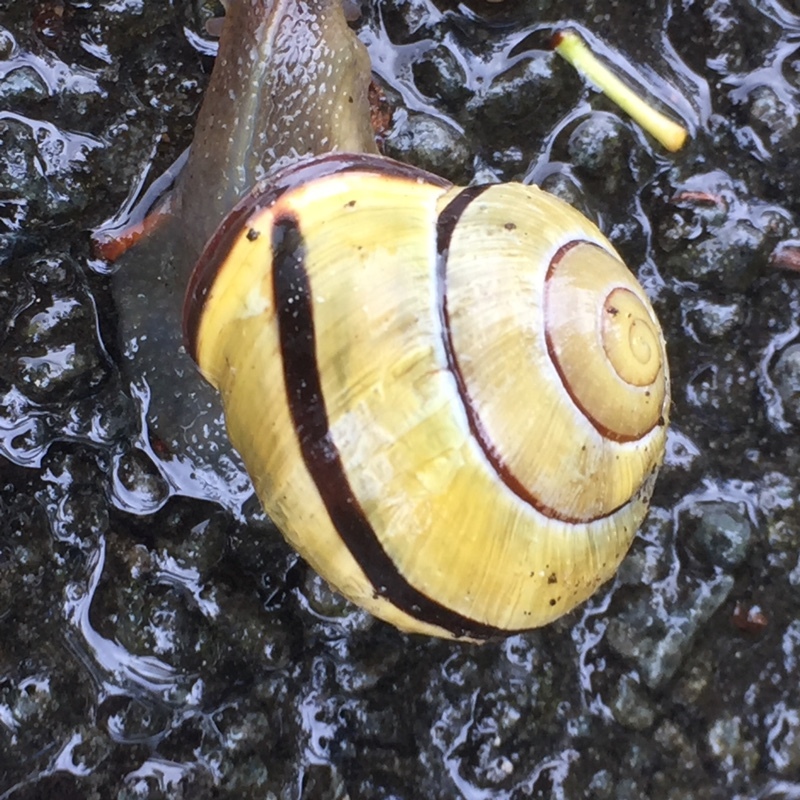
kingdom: Animalia
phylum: Mollusca
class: Gastropoda
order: Stylommatophora
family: Helicidae
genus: Cepaea
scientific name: Cepaea nemoralis
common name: Grovesnail
